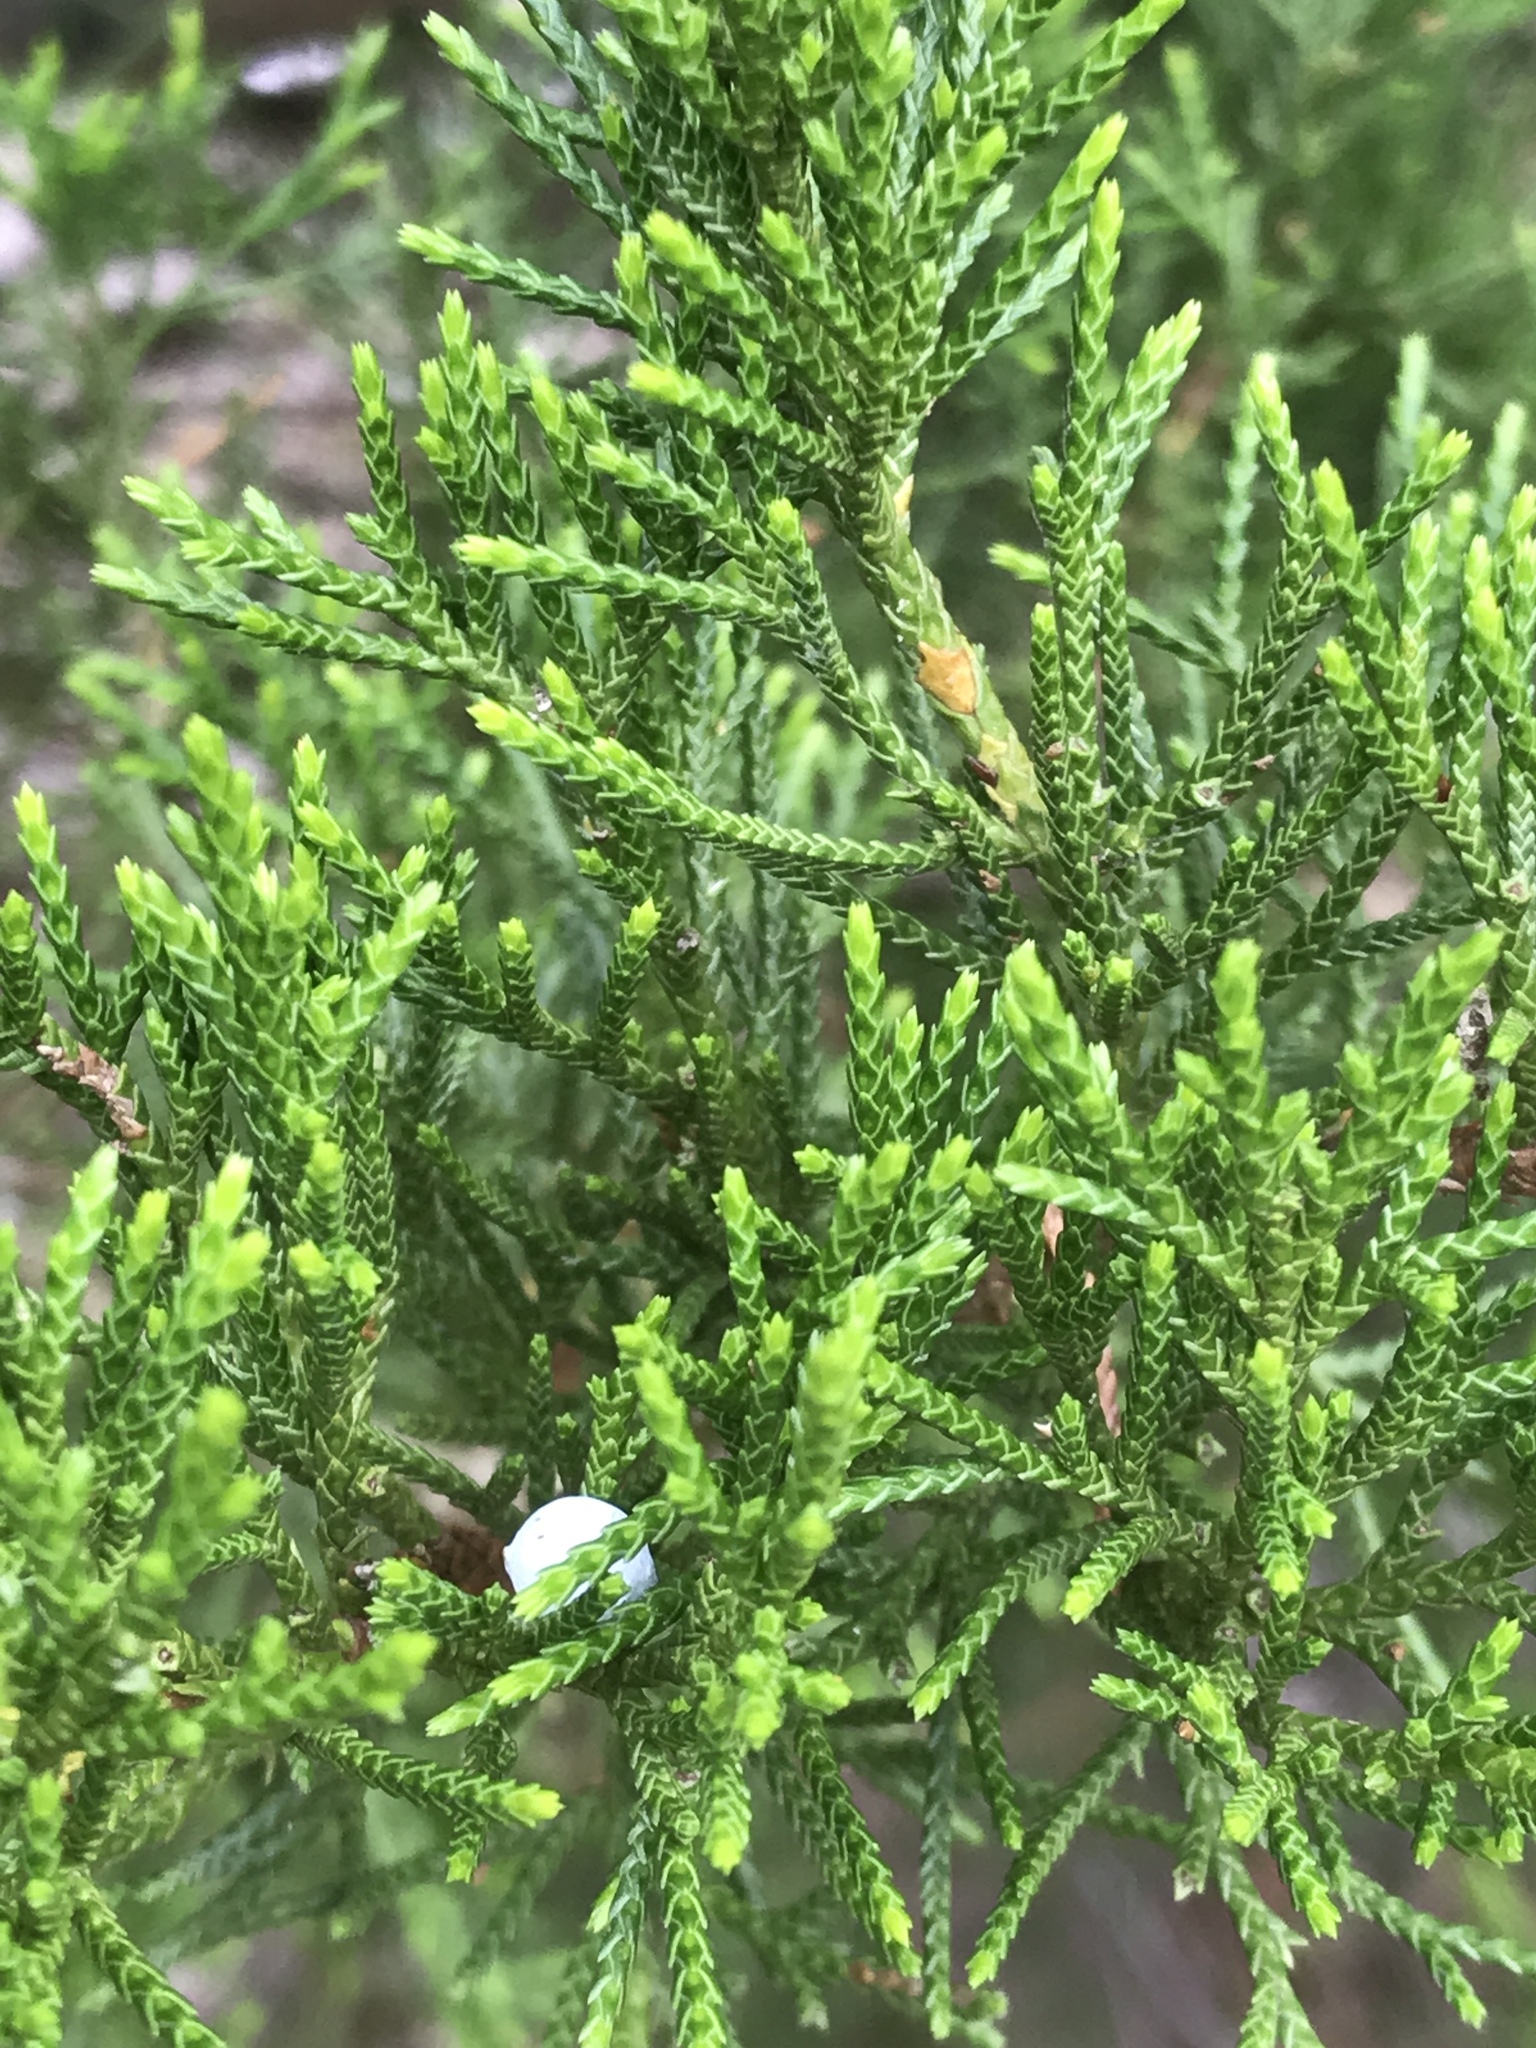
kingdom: Plantae
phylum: Tracheophyta
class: Pinopsida
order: Pinales
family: Cupressaceae
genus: Juniperus
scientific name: Juniperus virginiana
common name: Red juniper
